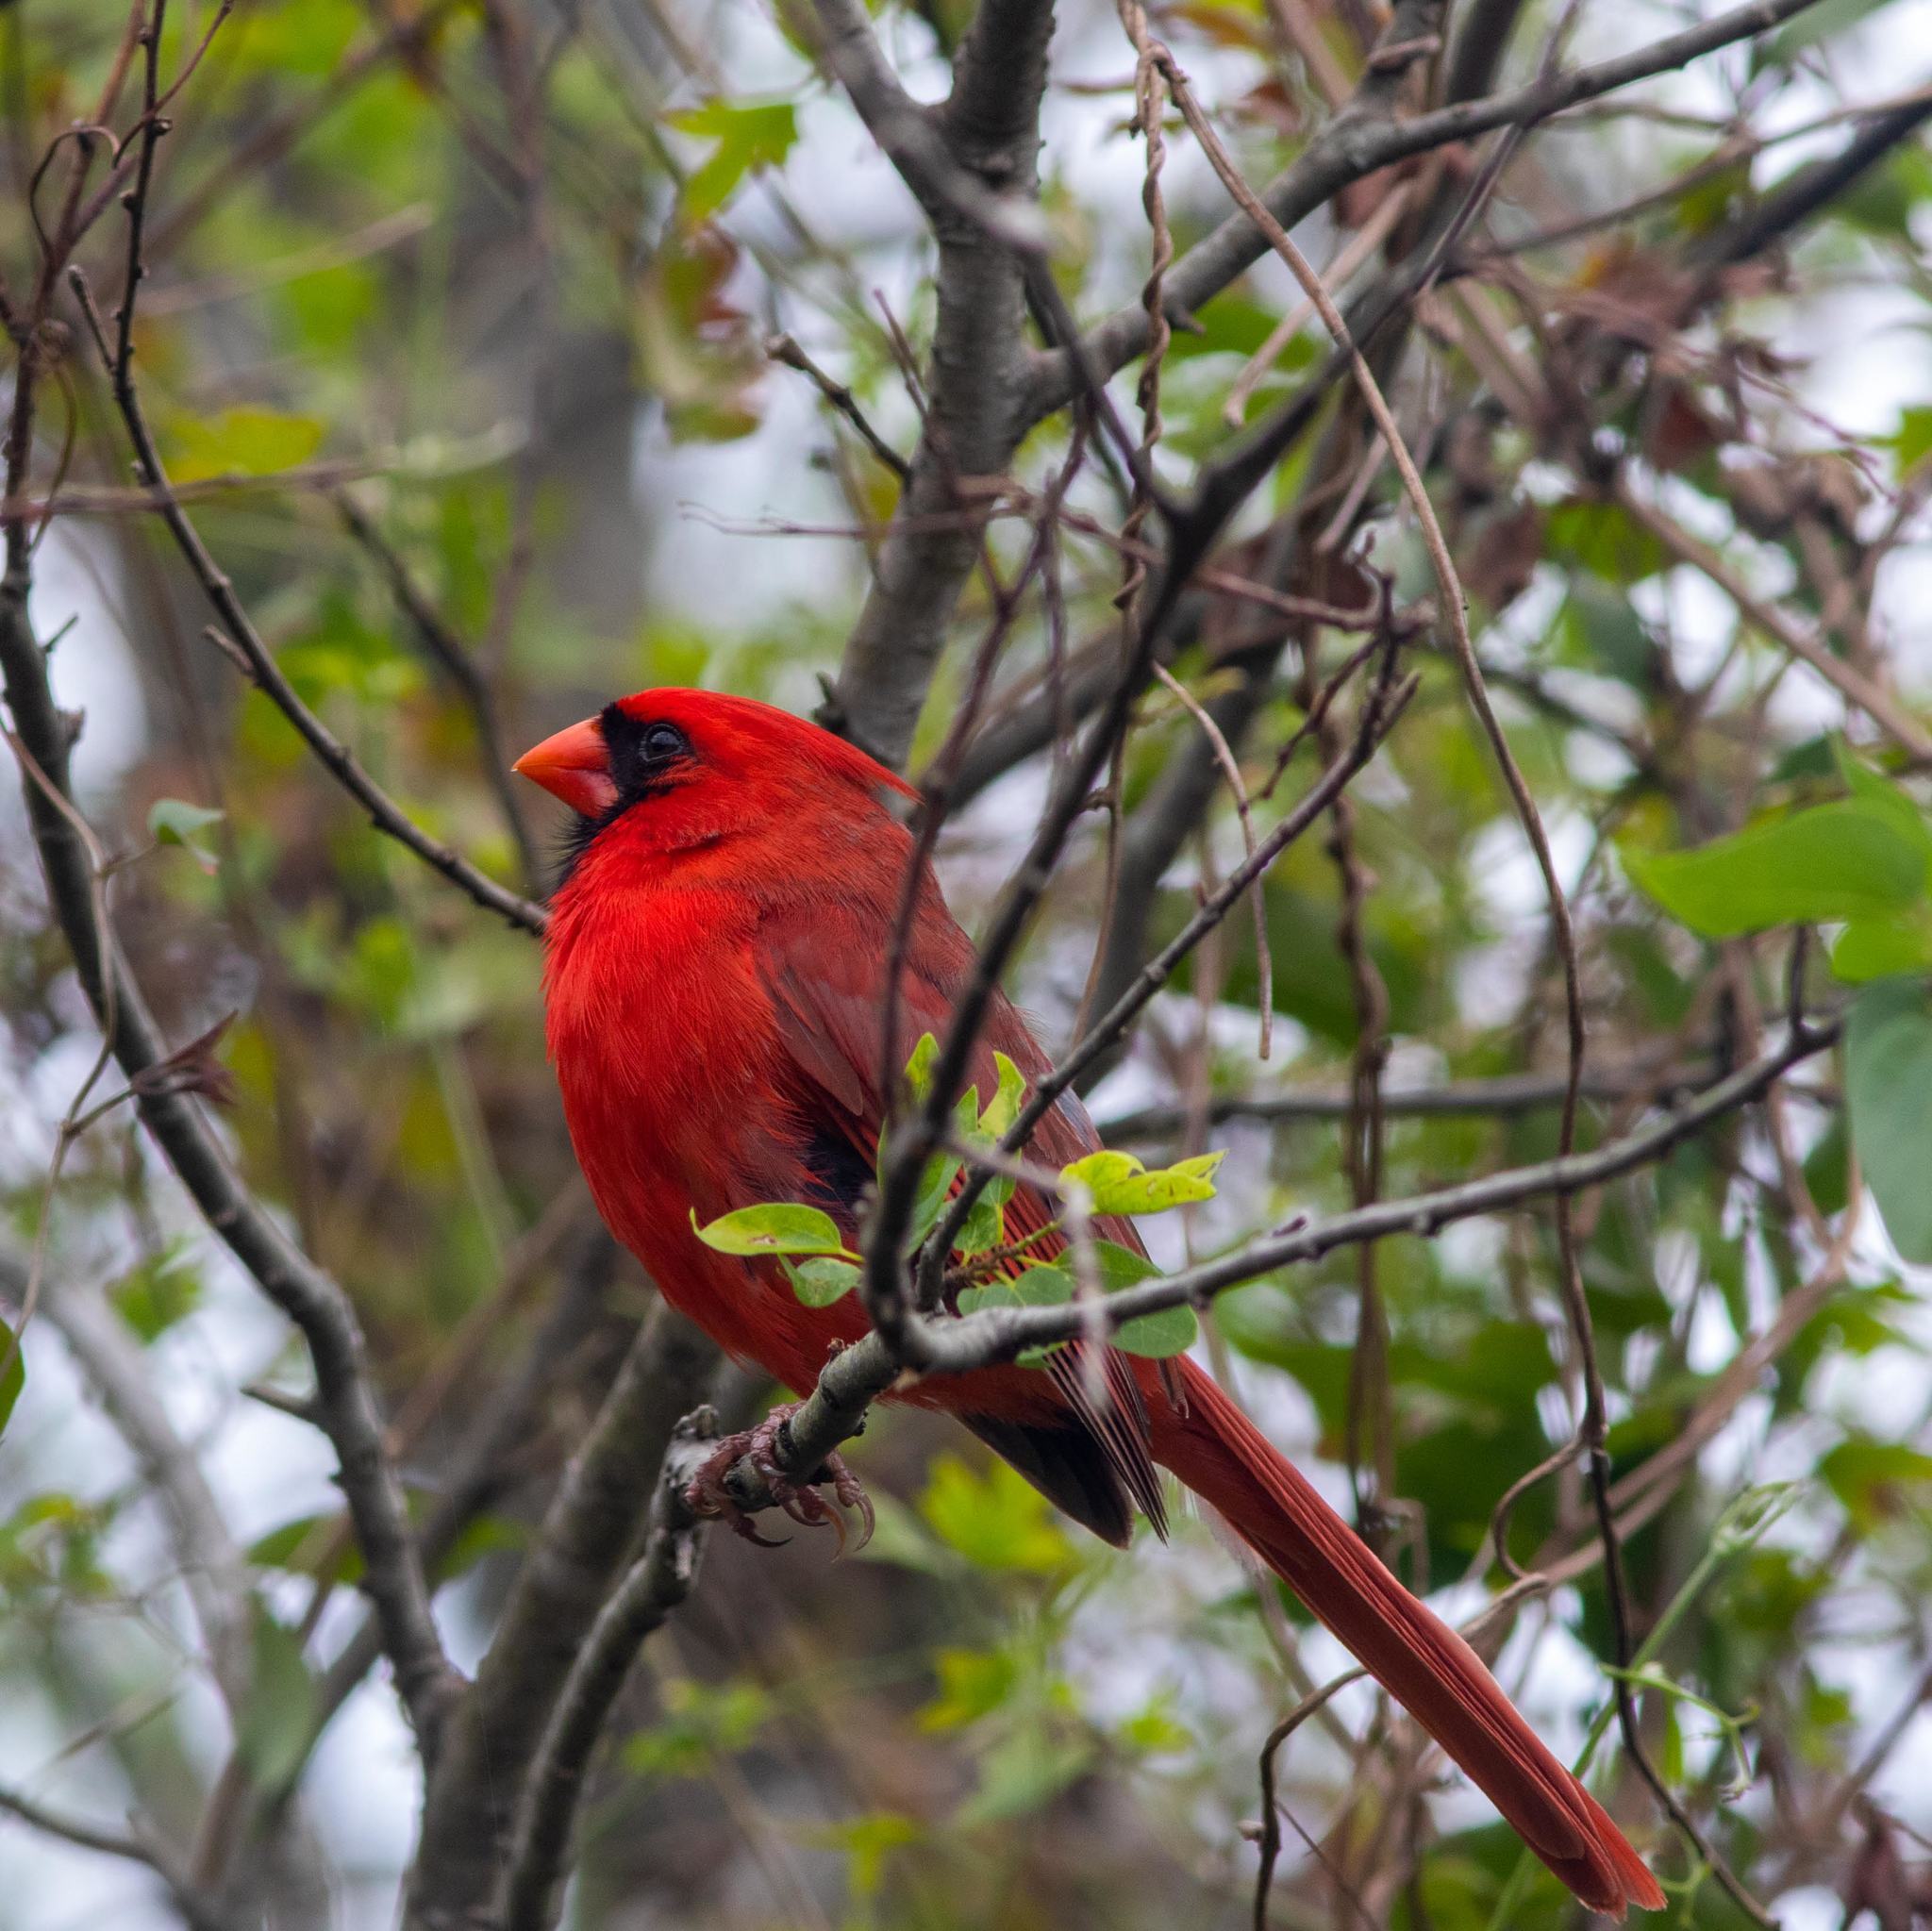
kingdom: Animalia
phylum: Chordata
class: Aves
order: Passeriformes
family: Cardinalidae
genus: Cardinalis
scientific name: Cardinalis cardinalis
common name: Northern cardinal
